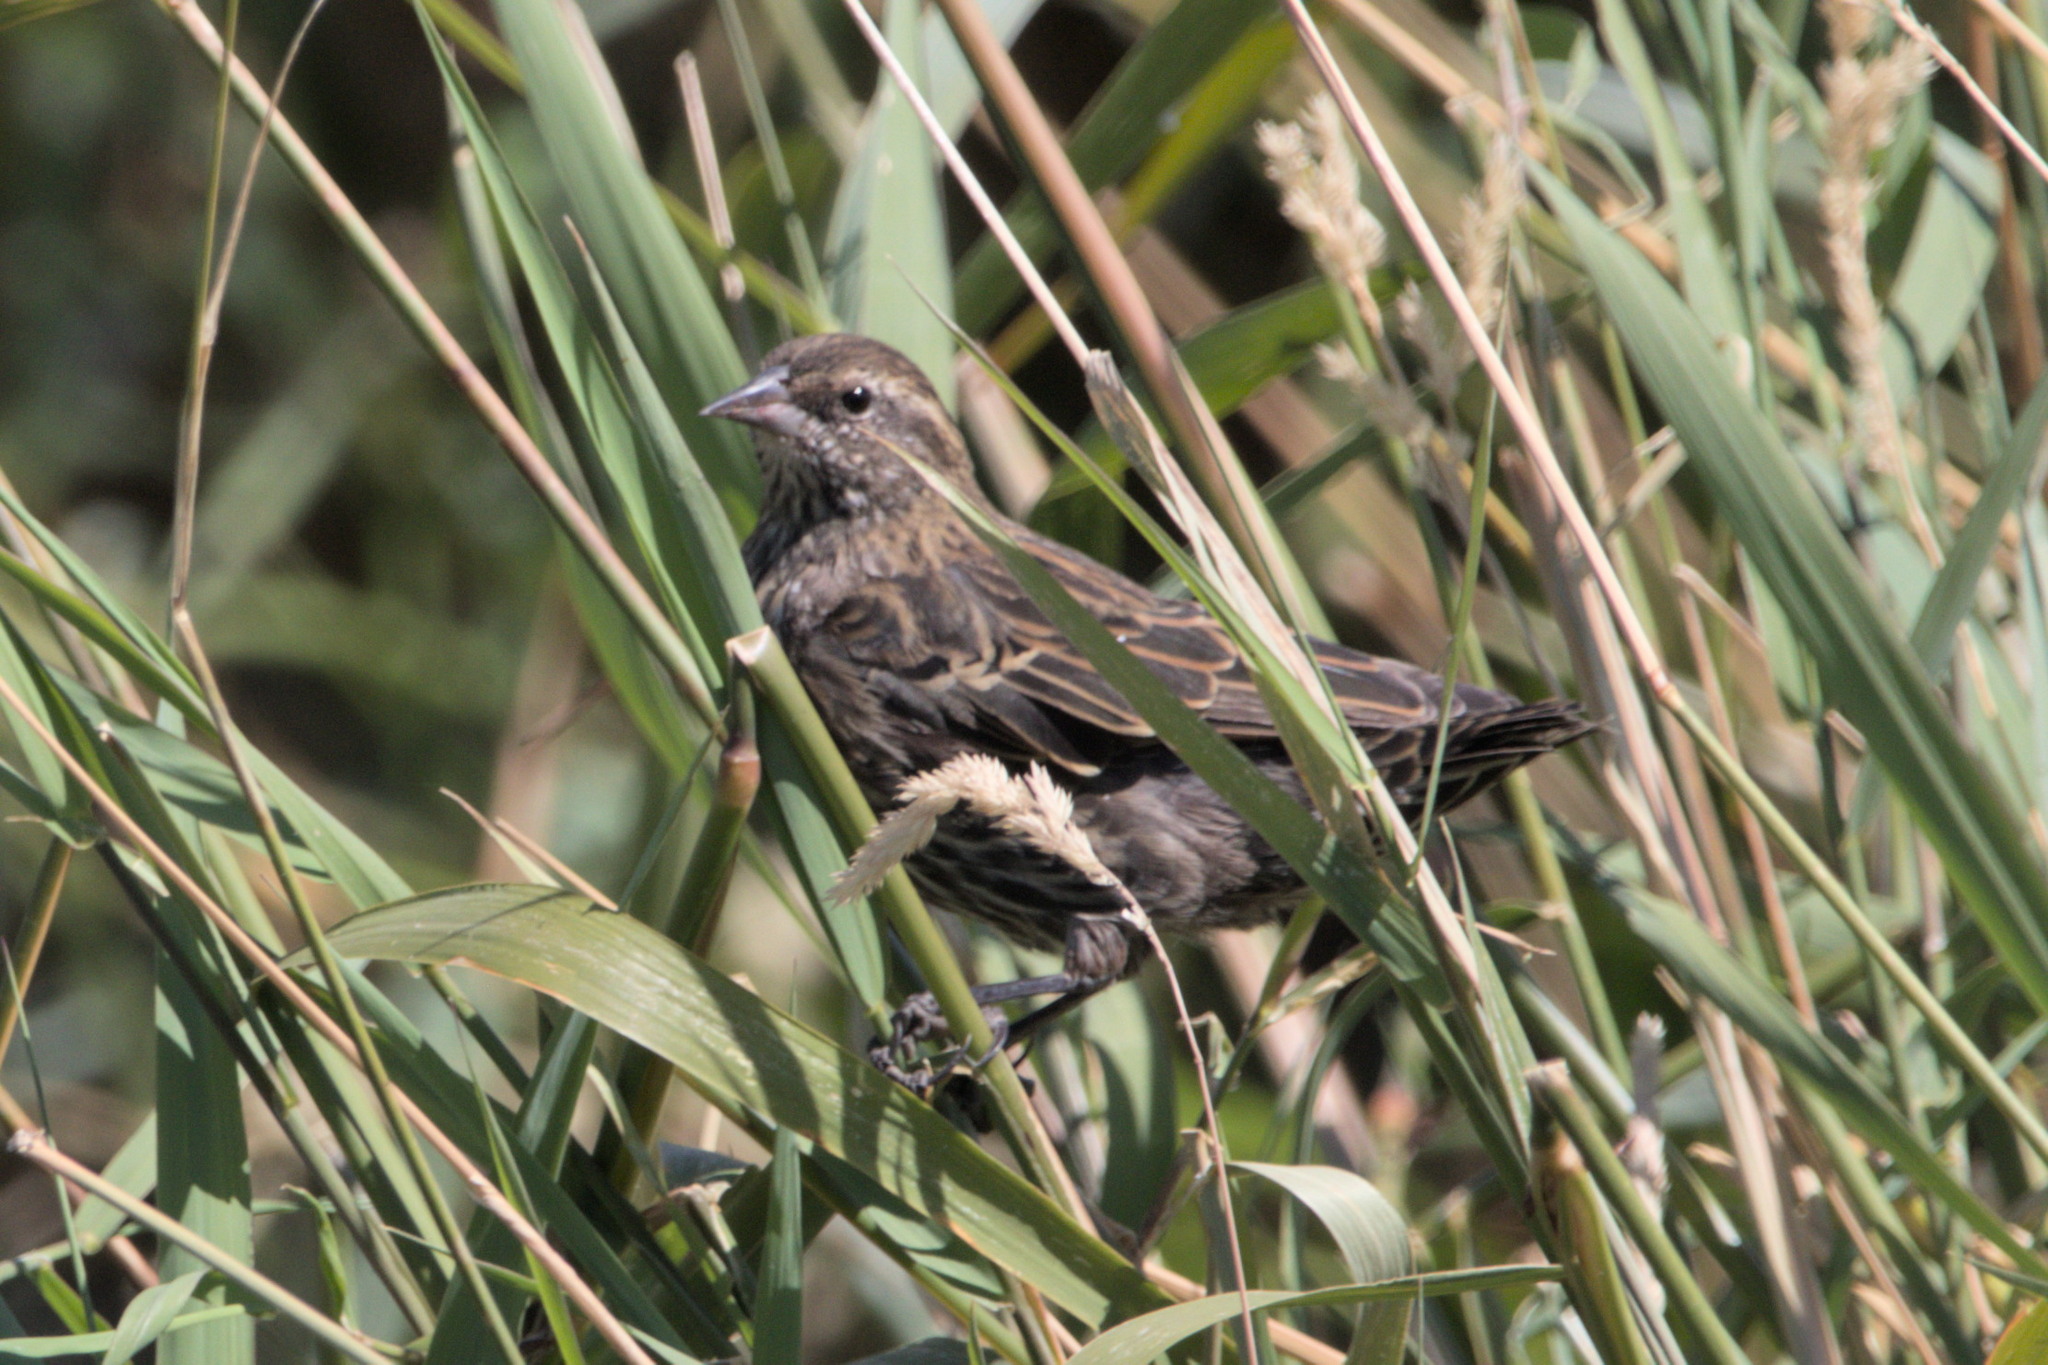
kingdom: Animalia
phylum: Chordata
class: Aves
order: Passeriformes
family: Icteridae
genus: Agelaius
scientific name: Agelaius phoeniceus
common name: Red-winged blackbird
